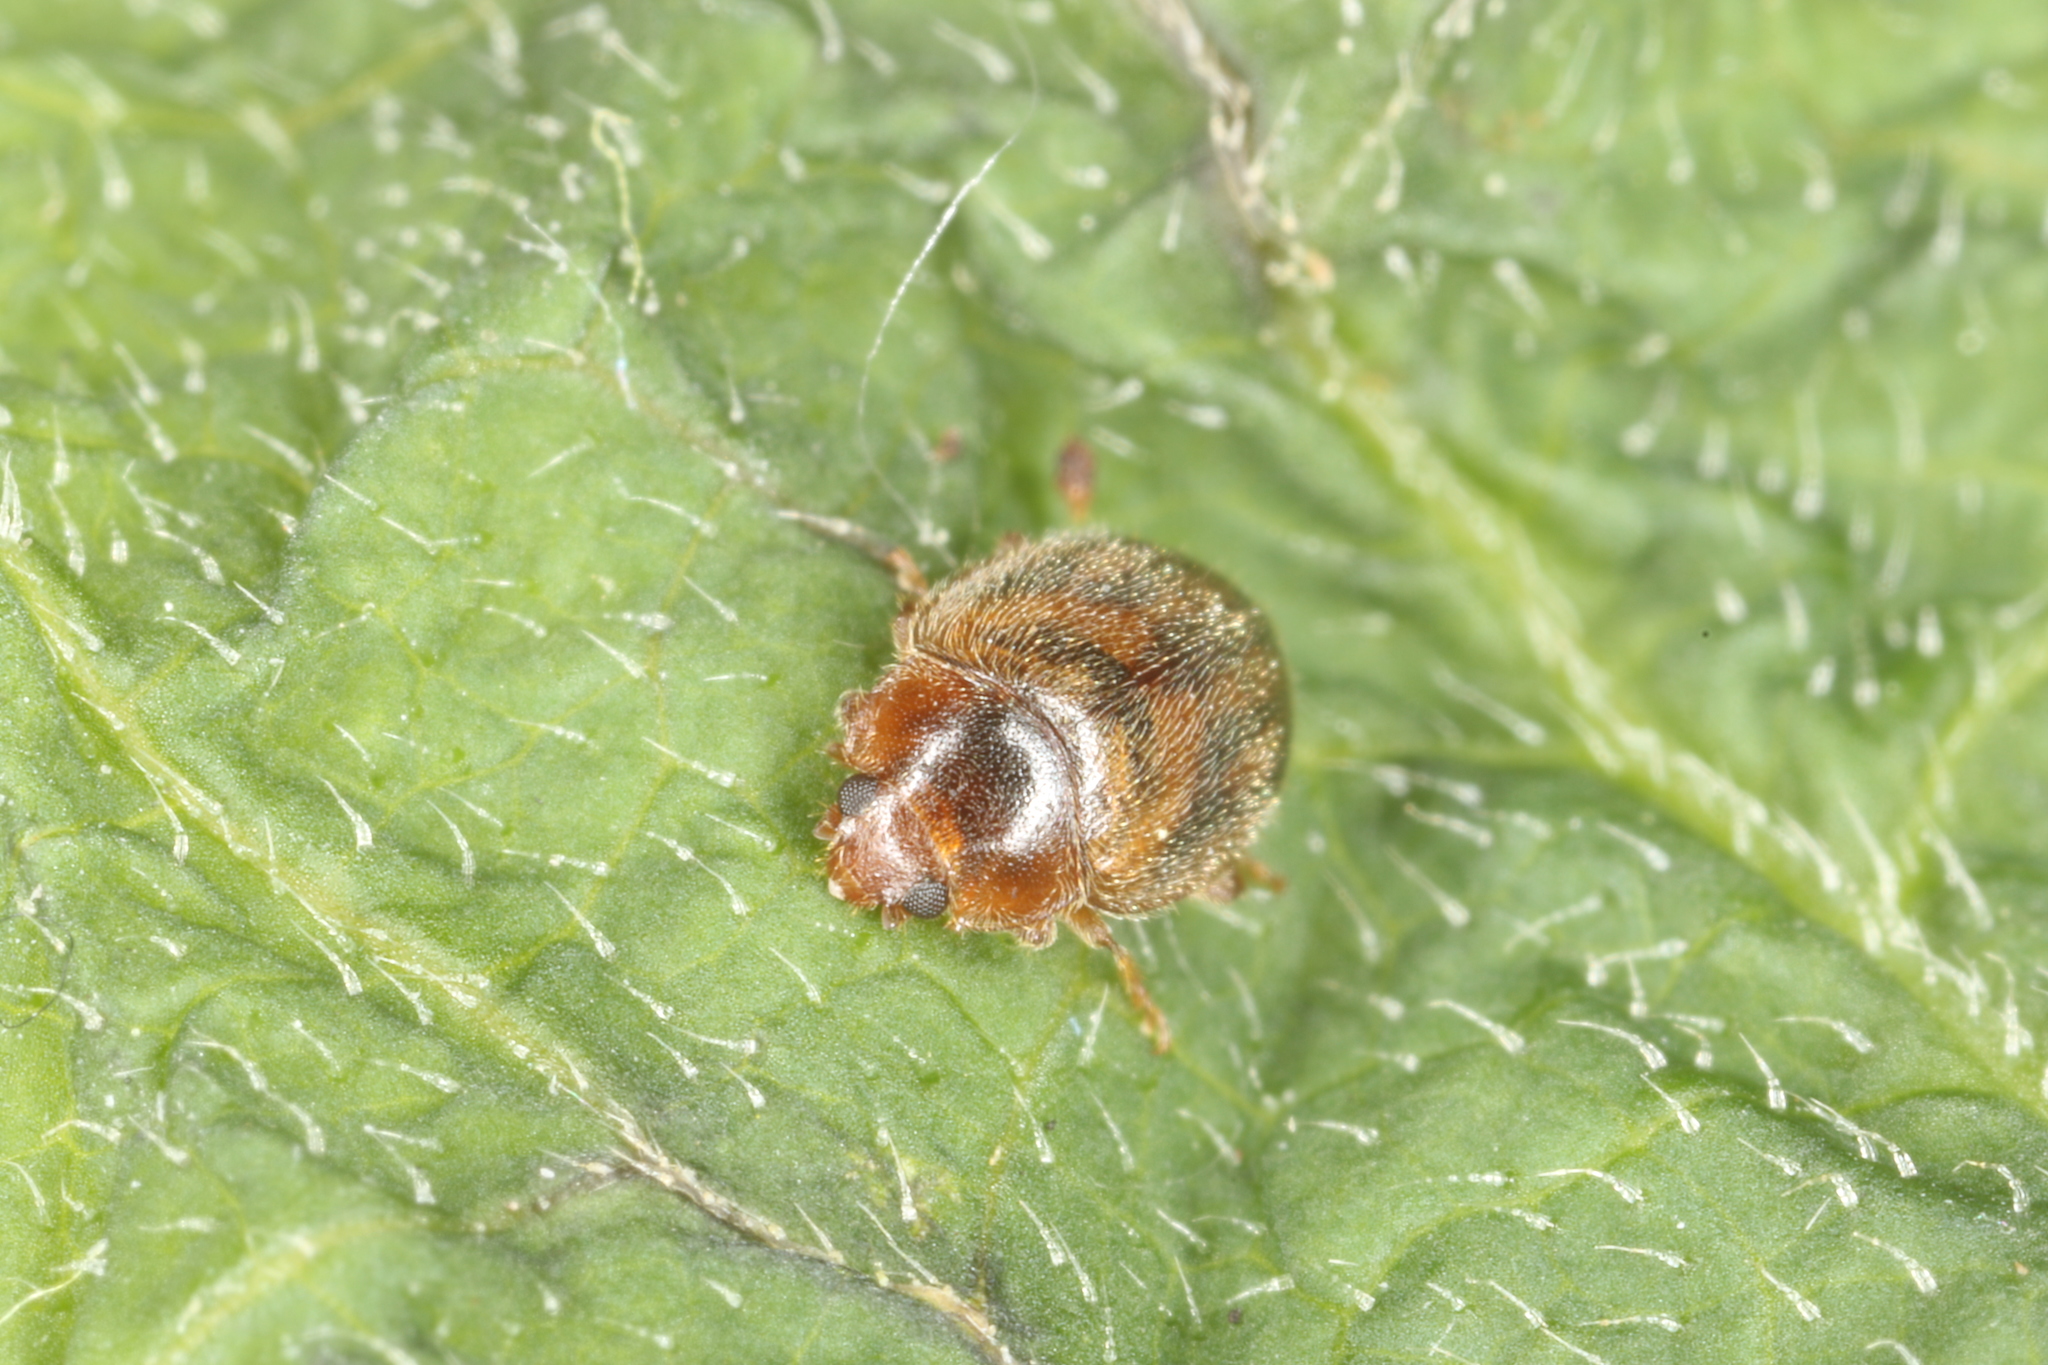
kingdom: Animalia
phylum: Arthropoda
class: Insecta
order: Coleoptera
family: Coccinellidae
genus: Rhyzobius
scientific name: Rhyzobius chrysomeloides
